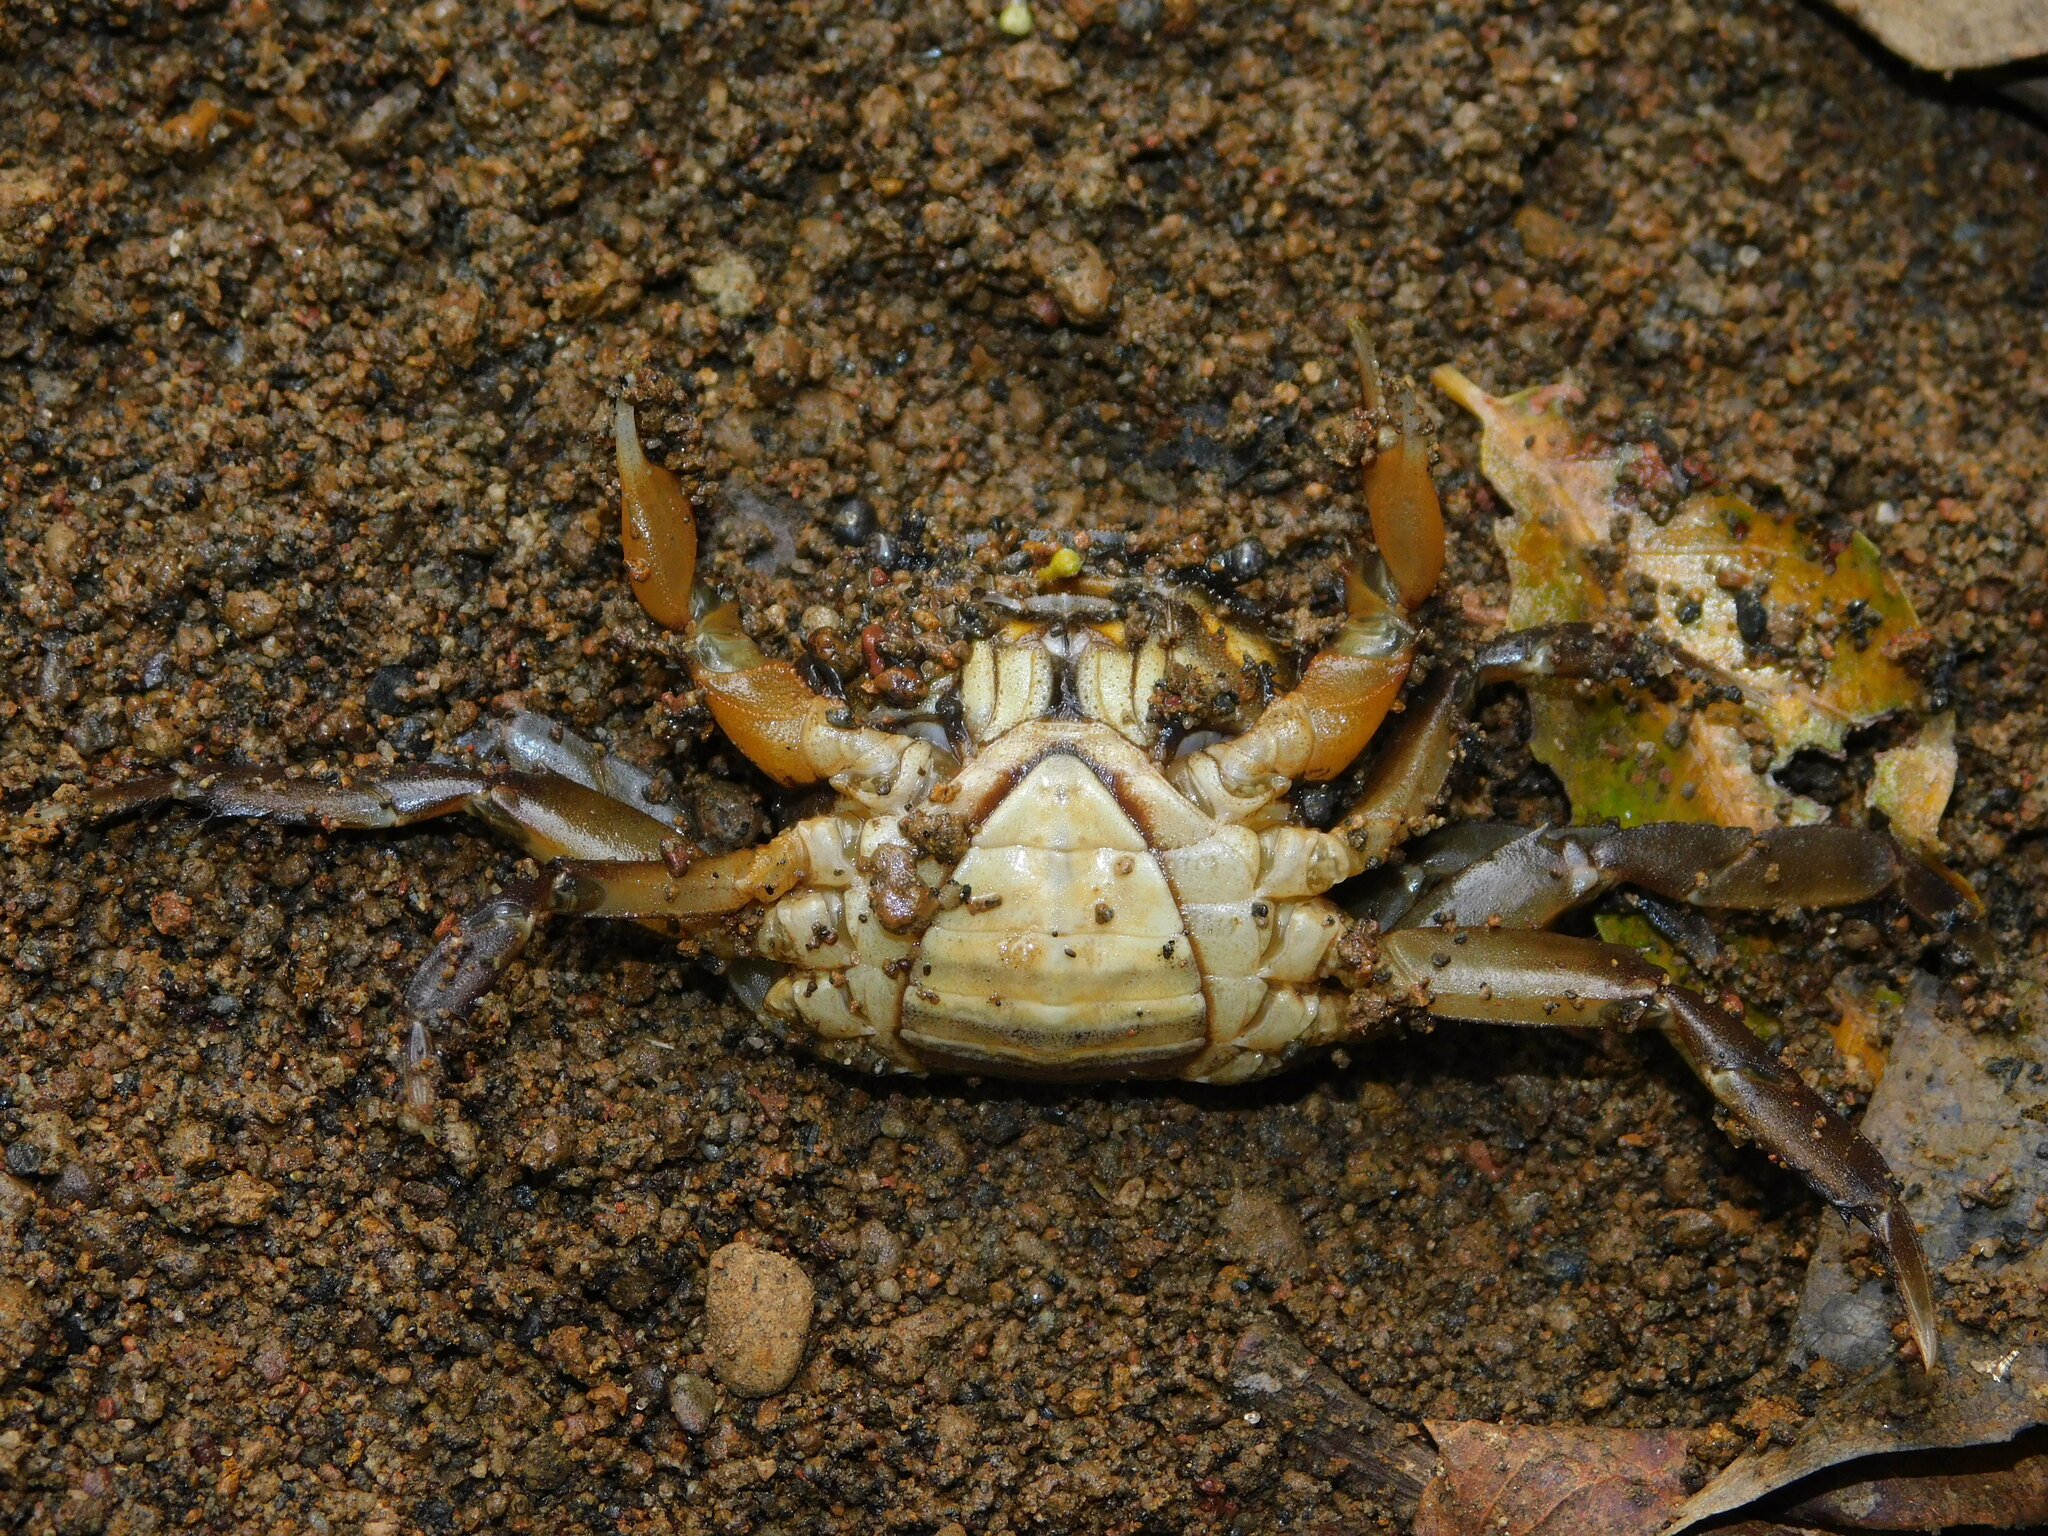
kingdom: Animalia
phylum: Arthropoda
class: Malacostraca
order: Decapoda
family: Varunidae
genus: Varuna
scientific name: Varuna litterata
